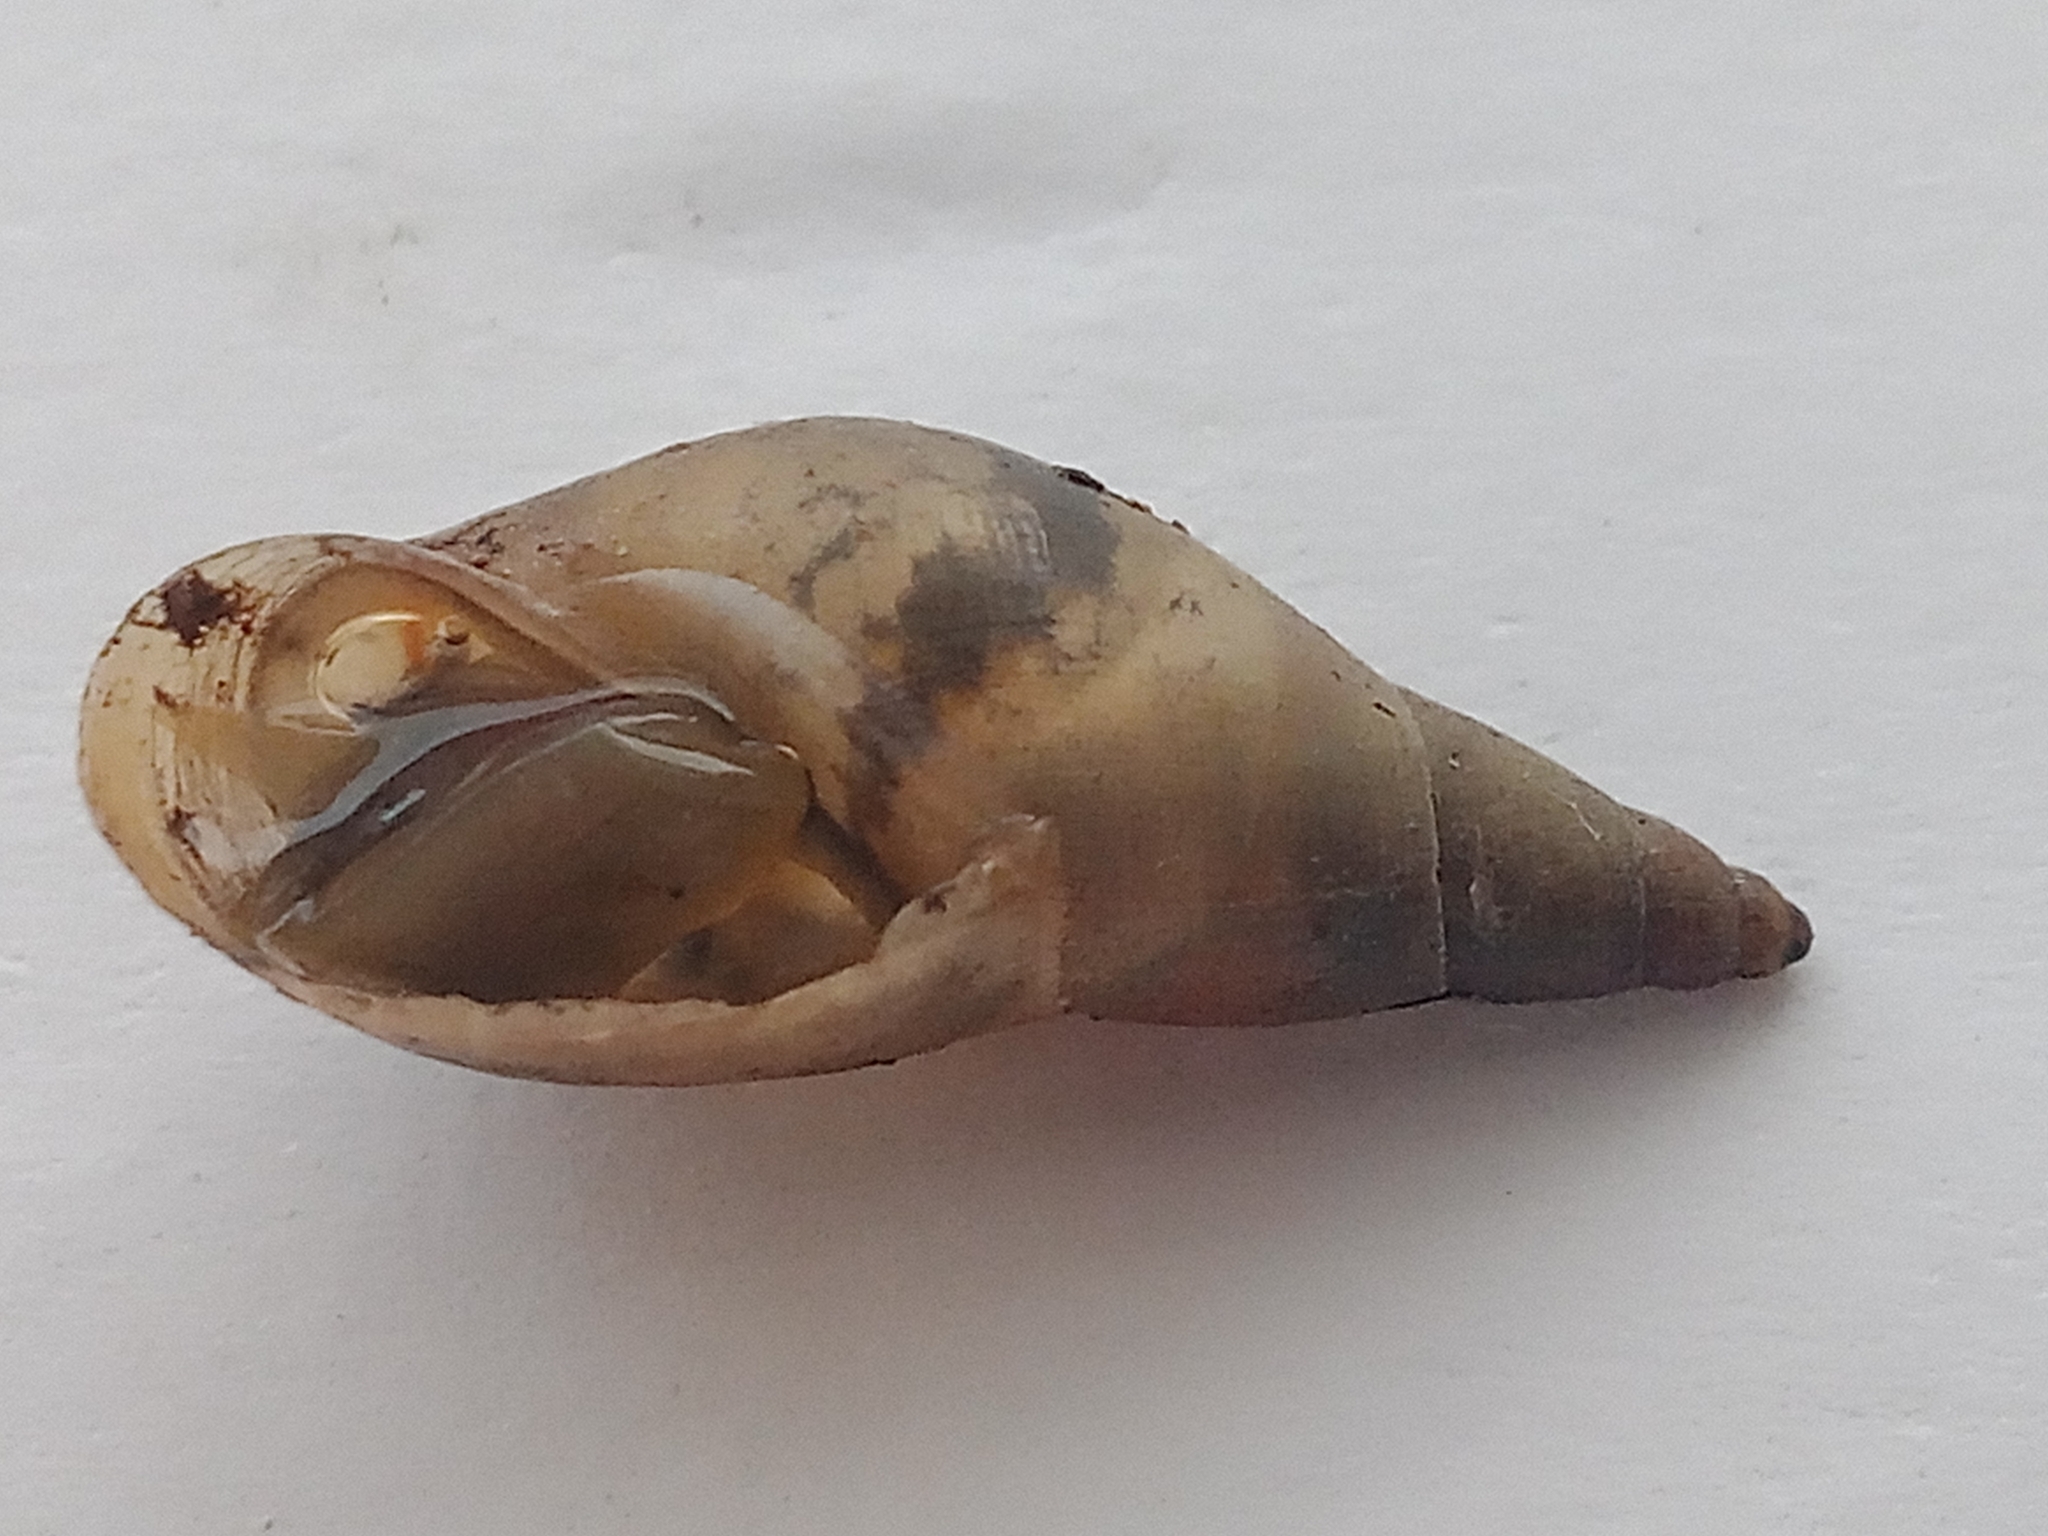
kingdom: Animalia
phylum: Mollusca
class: Gastropoda
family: Lymnaeidae
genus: Lymnaea
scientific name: Lymnaea stagnalis
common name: Great pond snail
